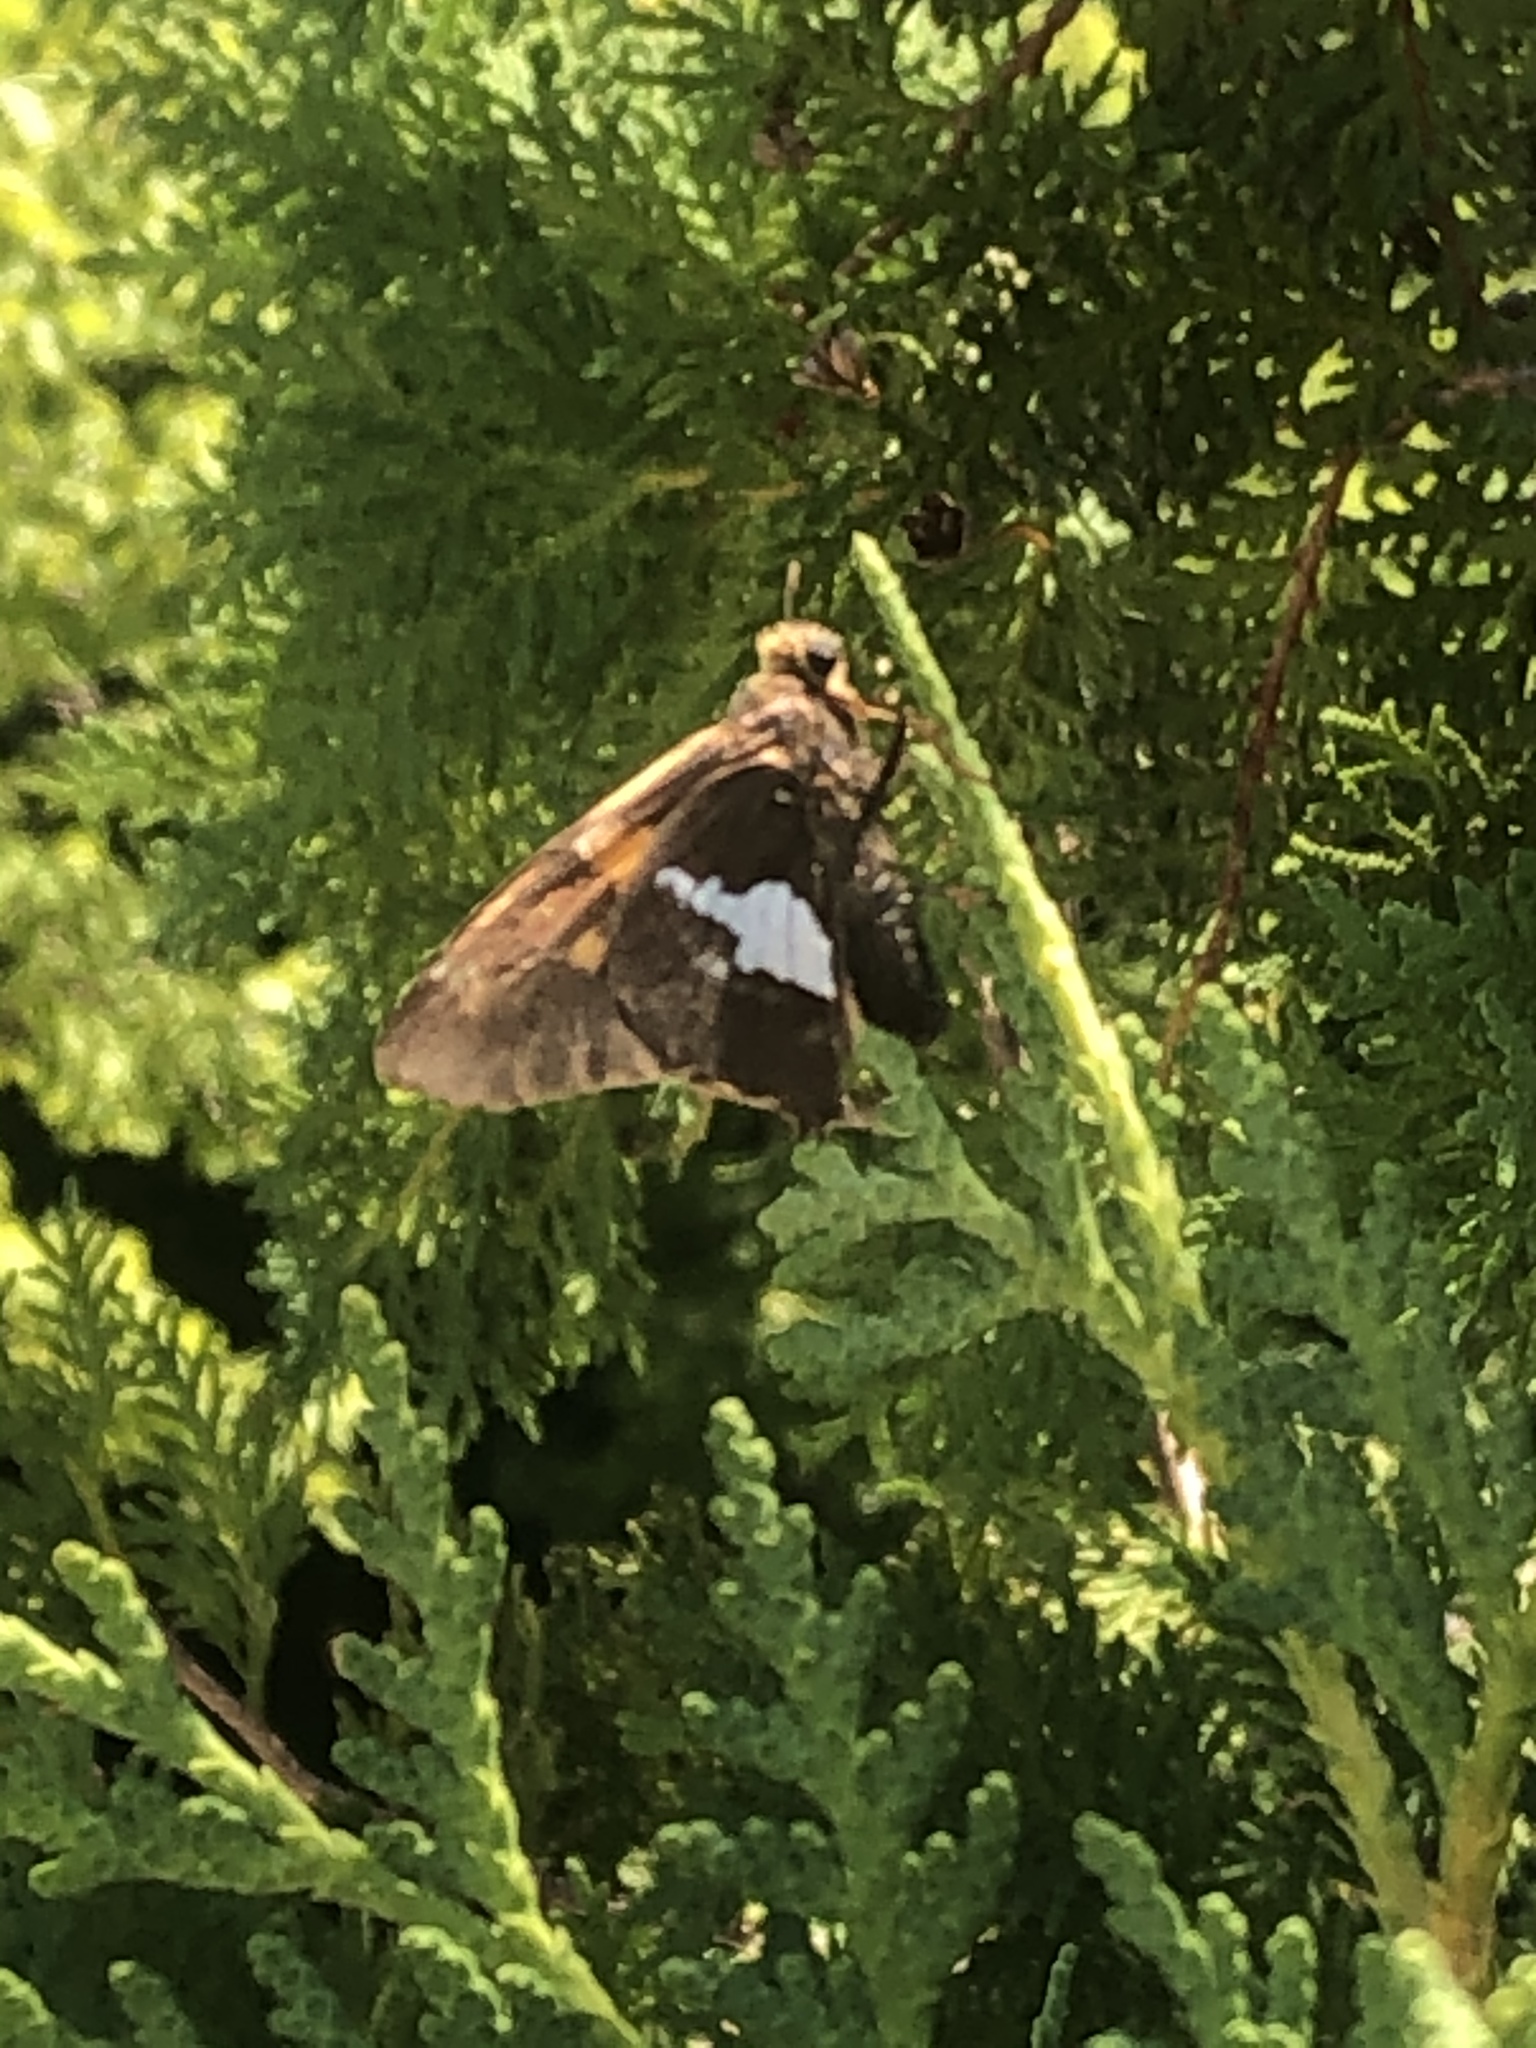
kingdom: Animalia
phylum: Arthropoda
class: Insecta
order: Lepidoptera
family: Hesperiidae
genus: Epargyreus
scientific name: Epargyreus clarus
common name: Silver-spotted skipper
